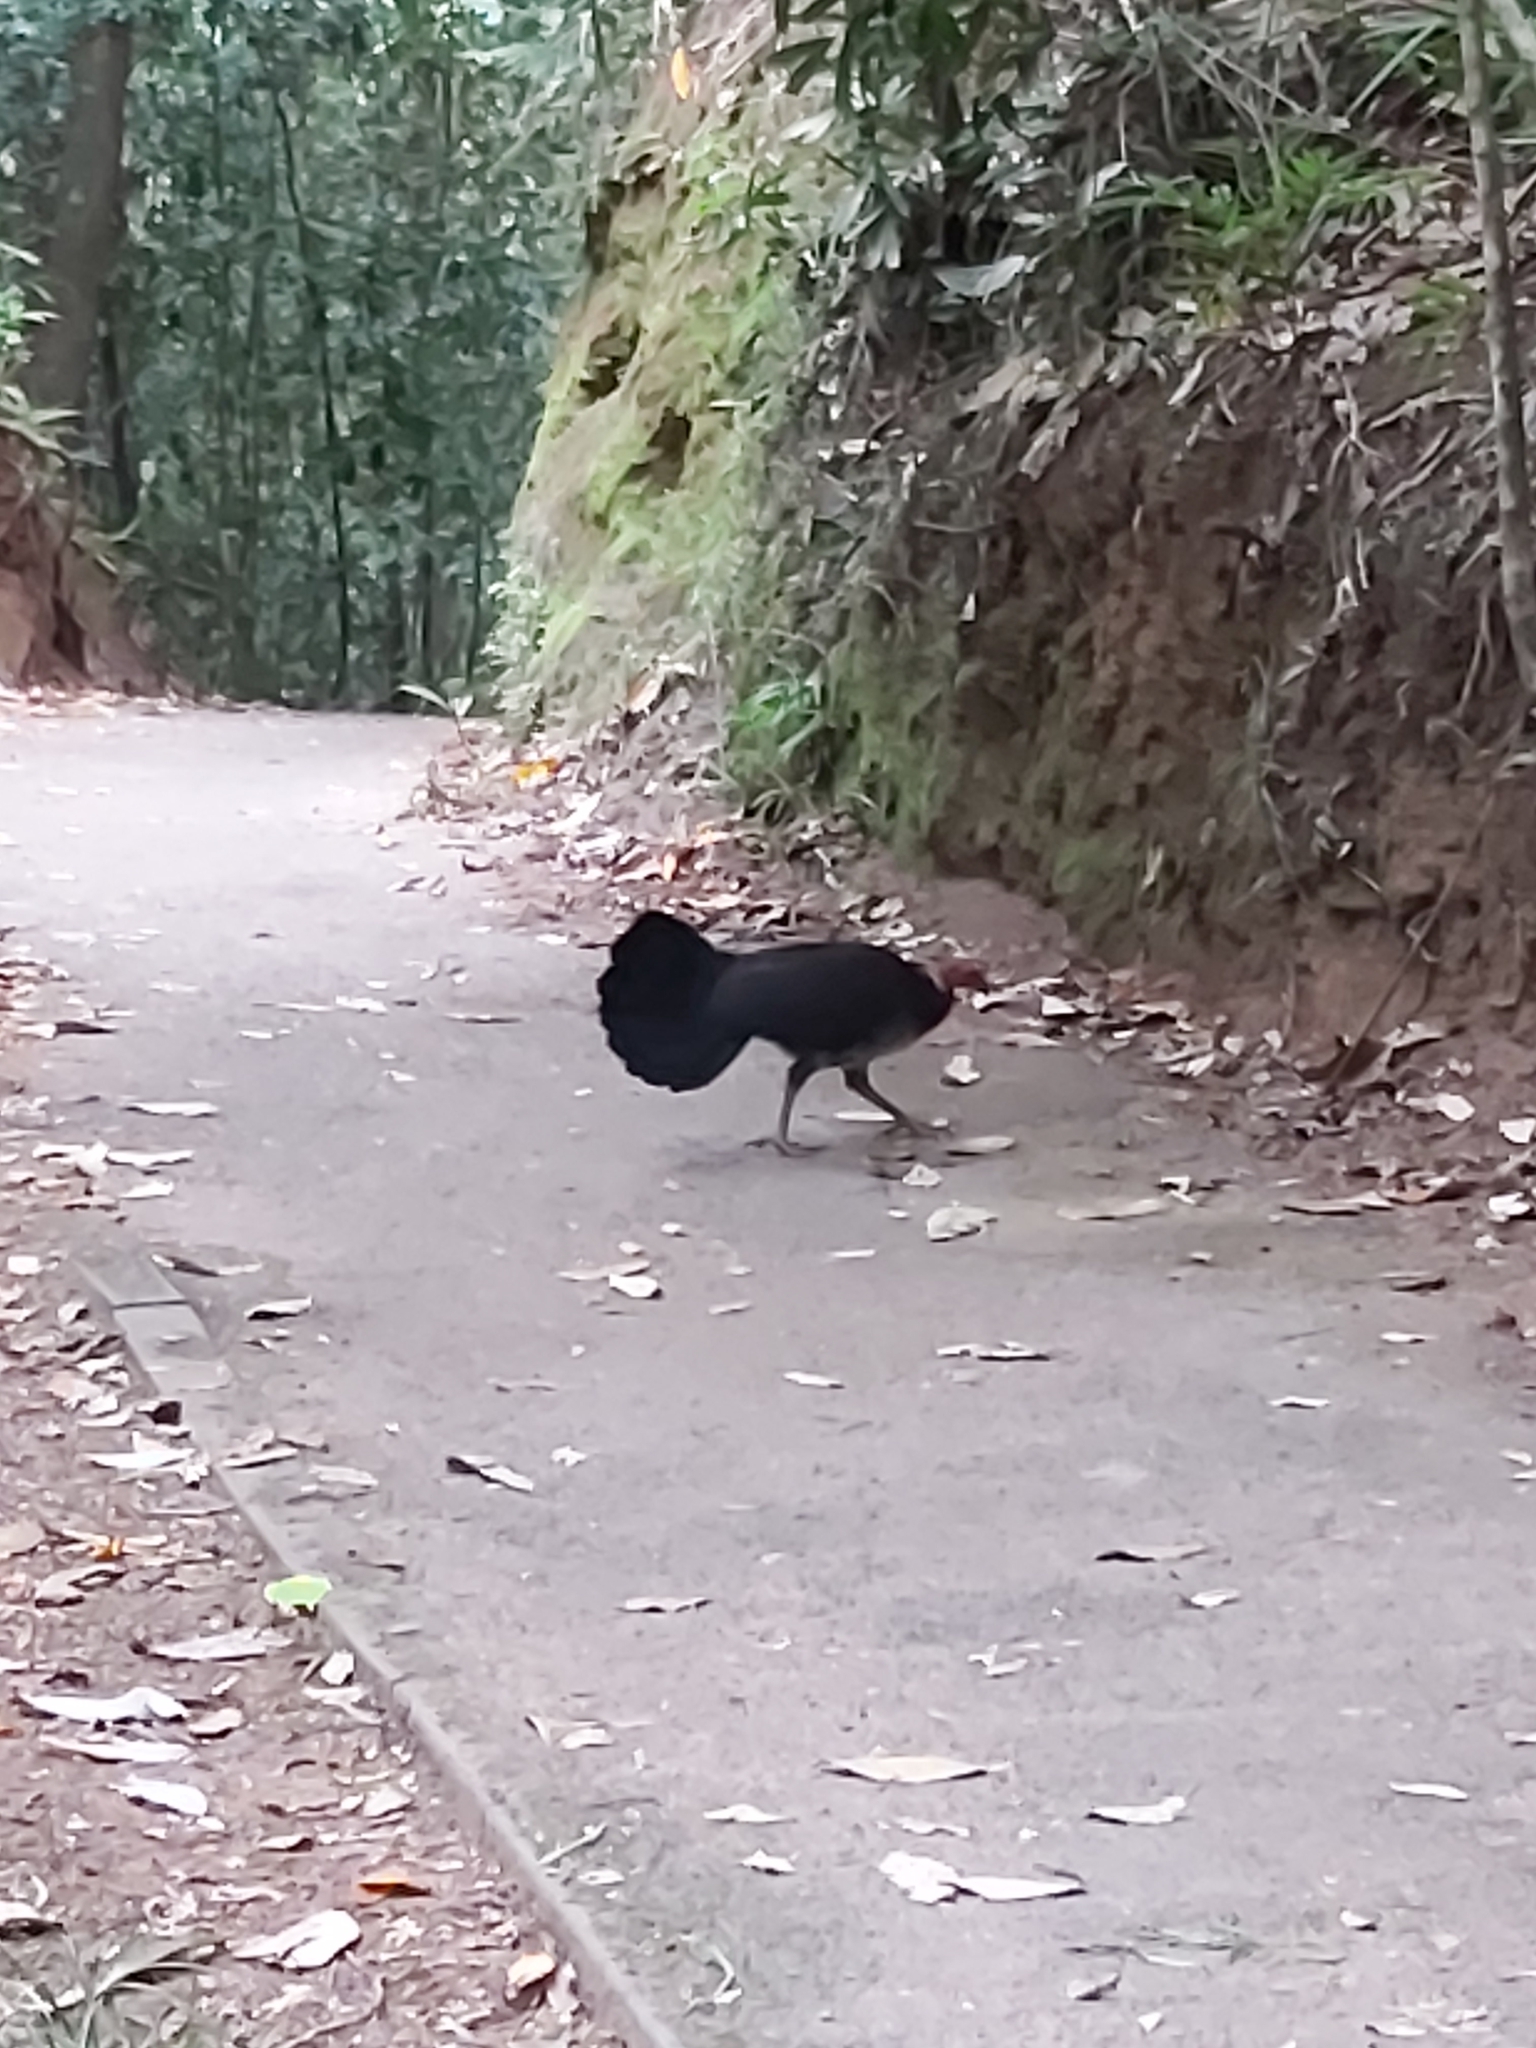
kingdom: Animalia
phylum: Chordata
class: Aves
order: Galliformes
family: Megapodiidae
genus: Alectura
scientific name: Alectura lathami
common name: Australian brushturkey
